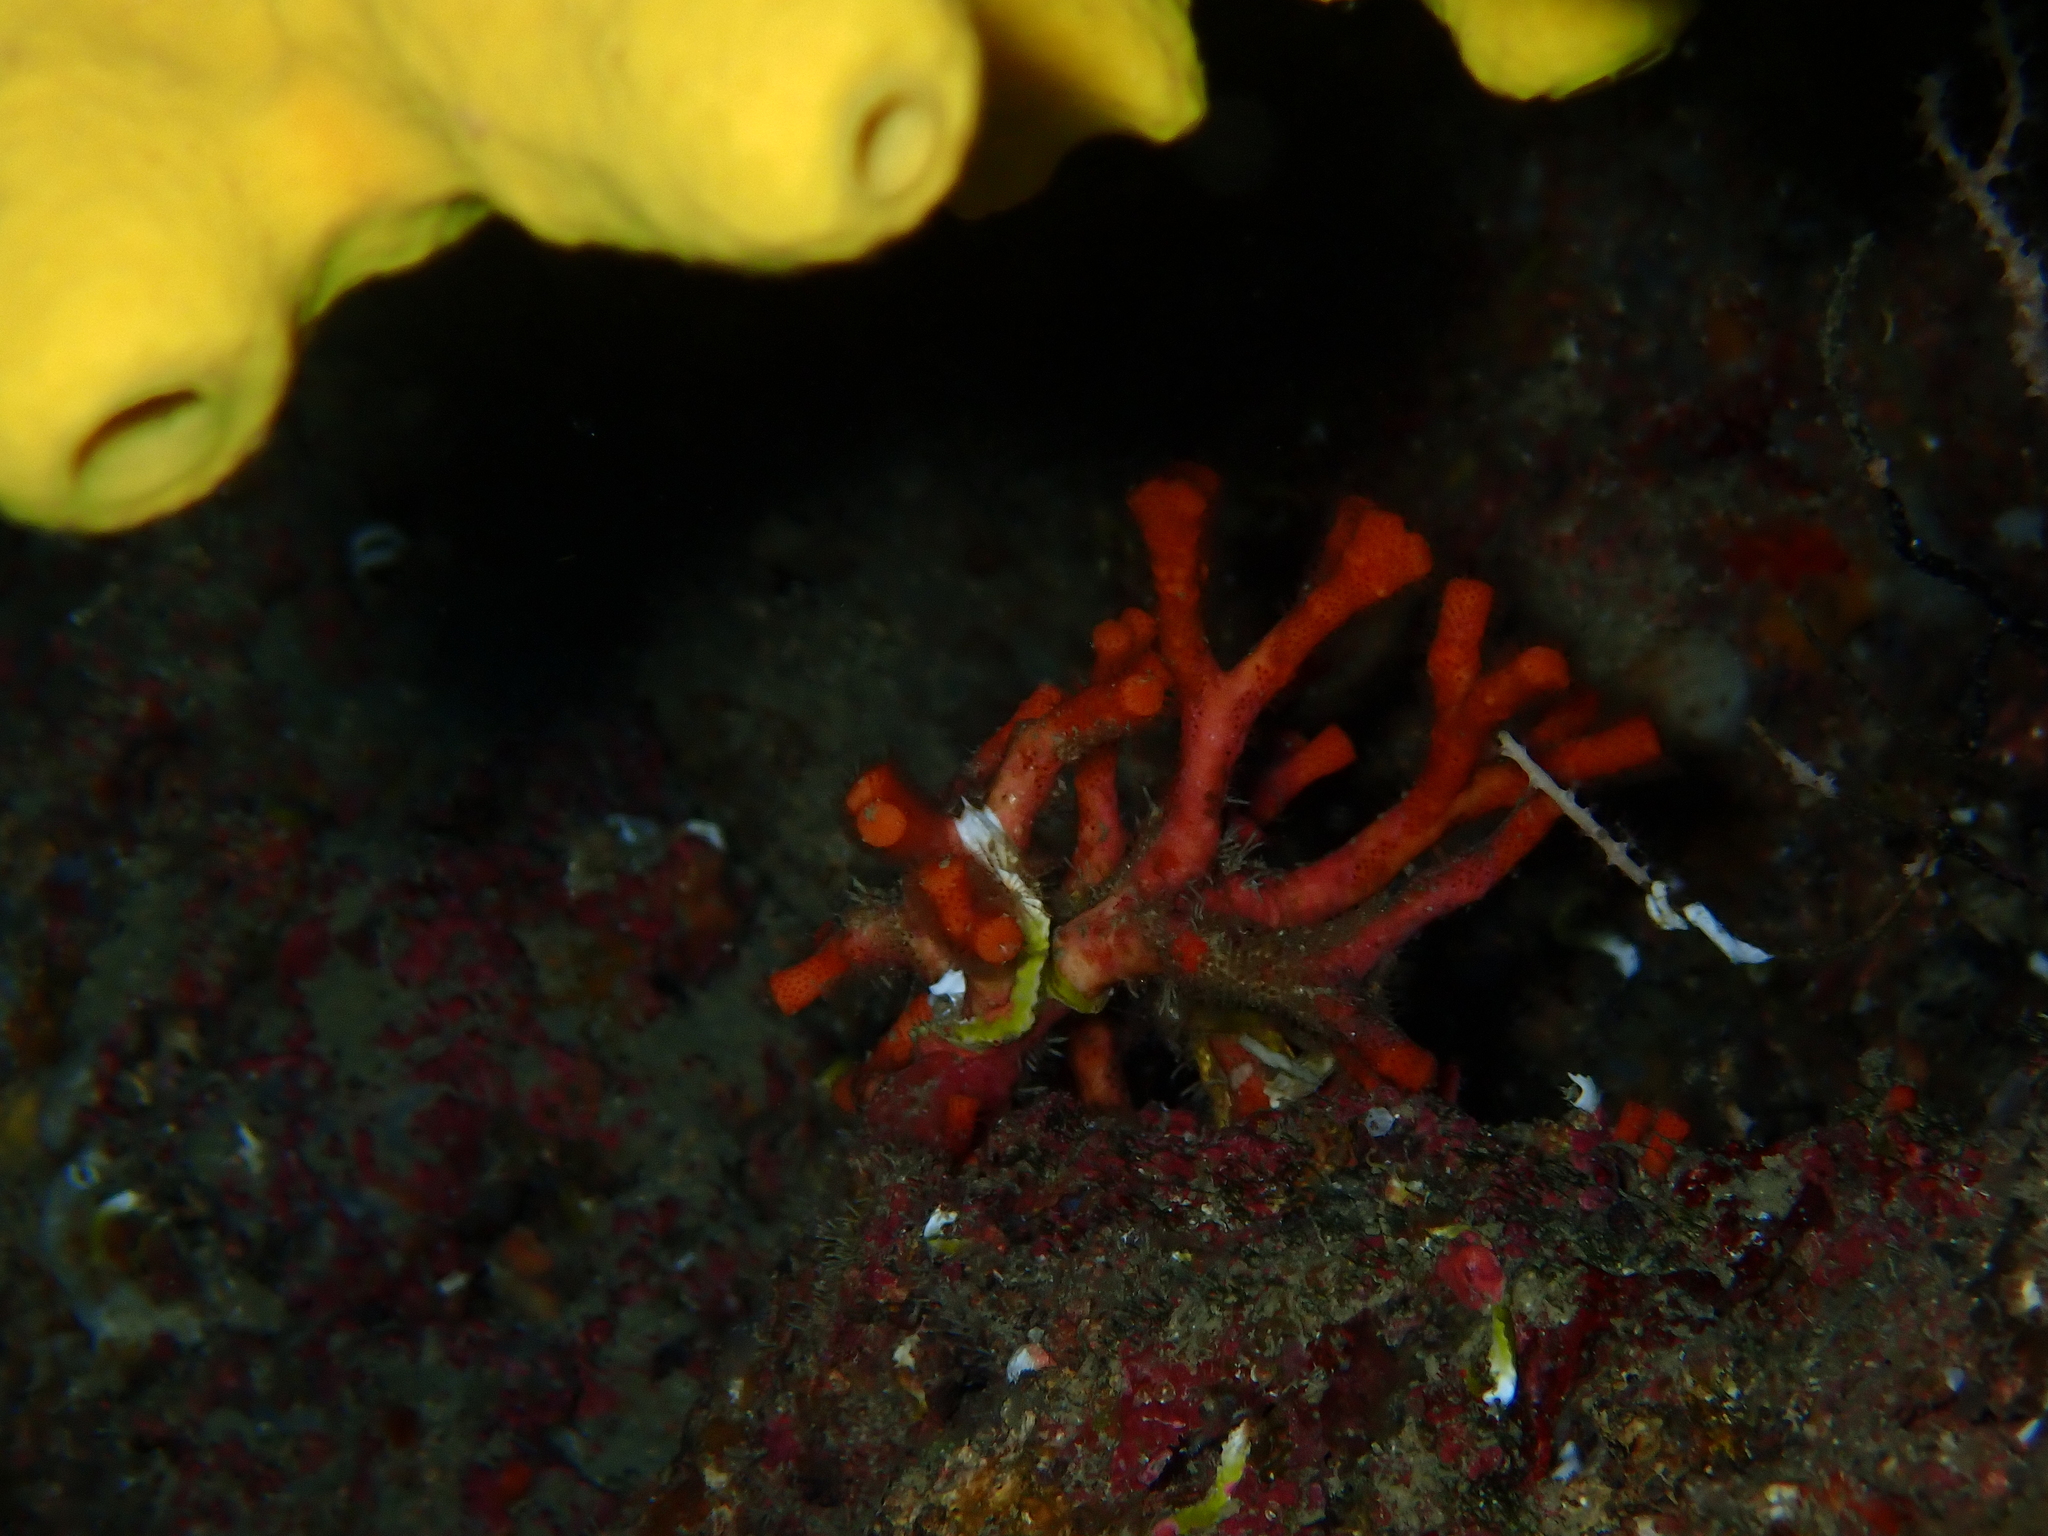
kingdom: Animalia
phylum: Bryozoa
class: Gymnolaemata
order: Cheilostomatida
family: Myriaporidae
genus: Myriapora
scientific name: Myriapora truncata
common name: False coral
